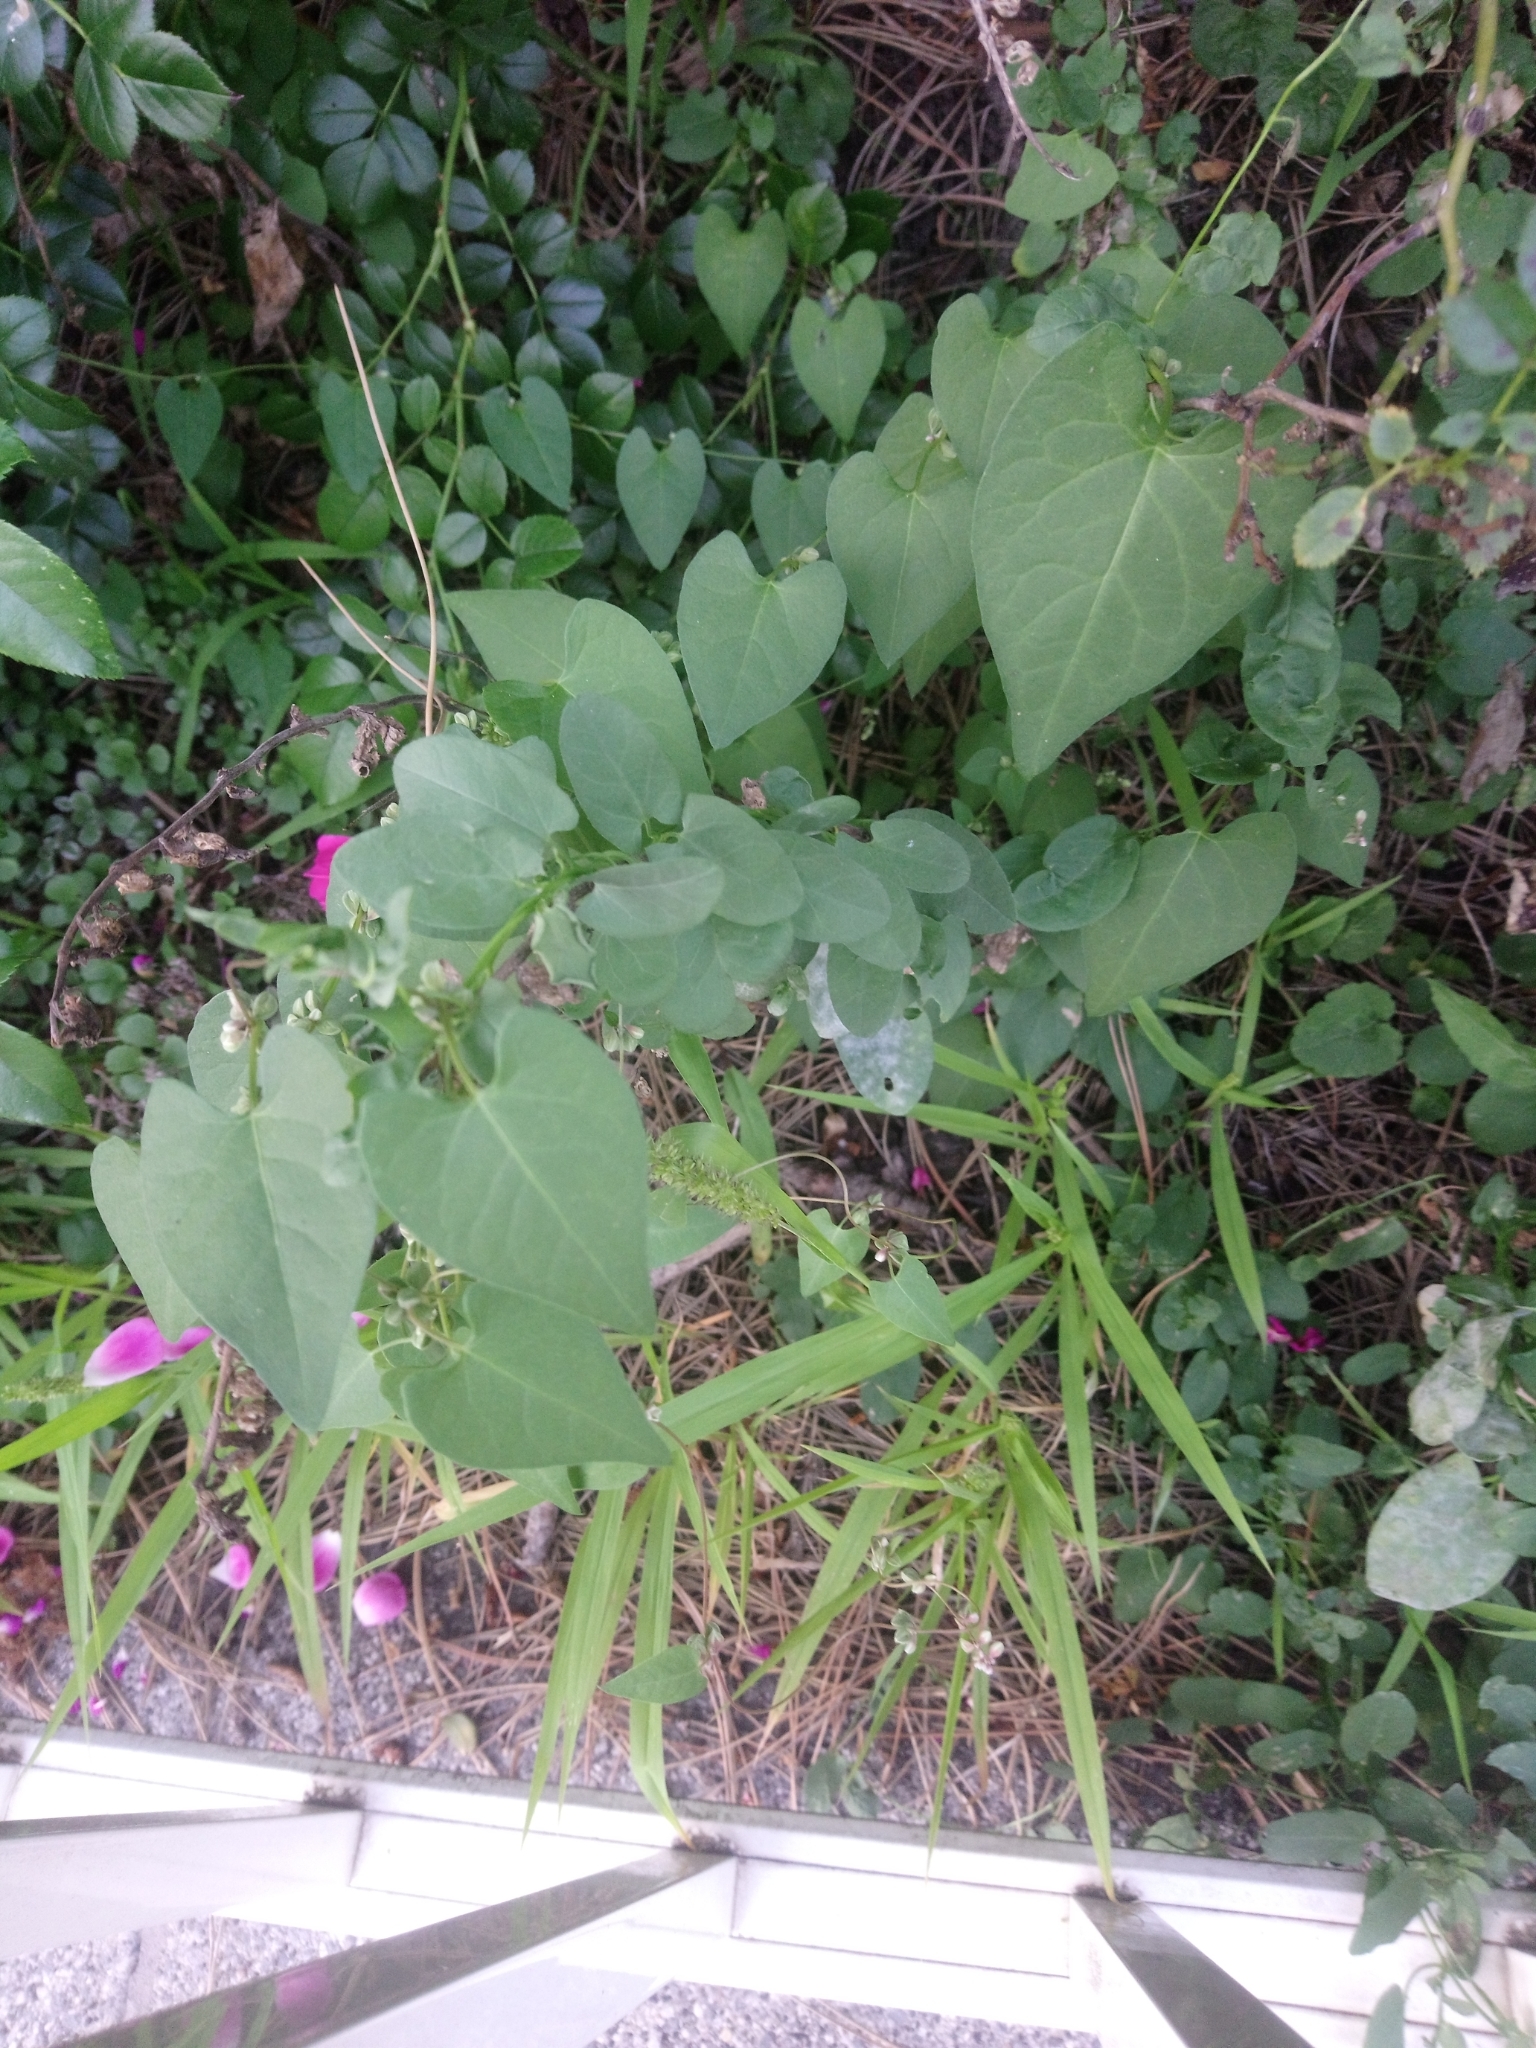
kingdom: Plantae
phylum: Tracheophyta
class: Magnoliopsida
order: Caryophyllales
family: Polygonaceae
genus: Fallopia
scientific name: Fallopia convolvulus
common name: Black bindweed
